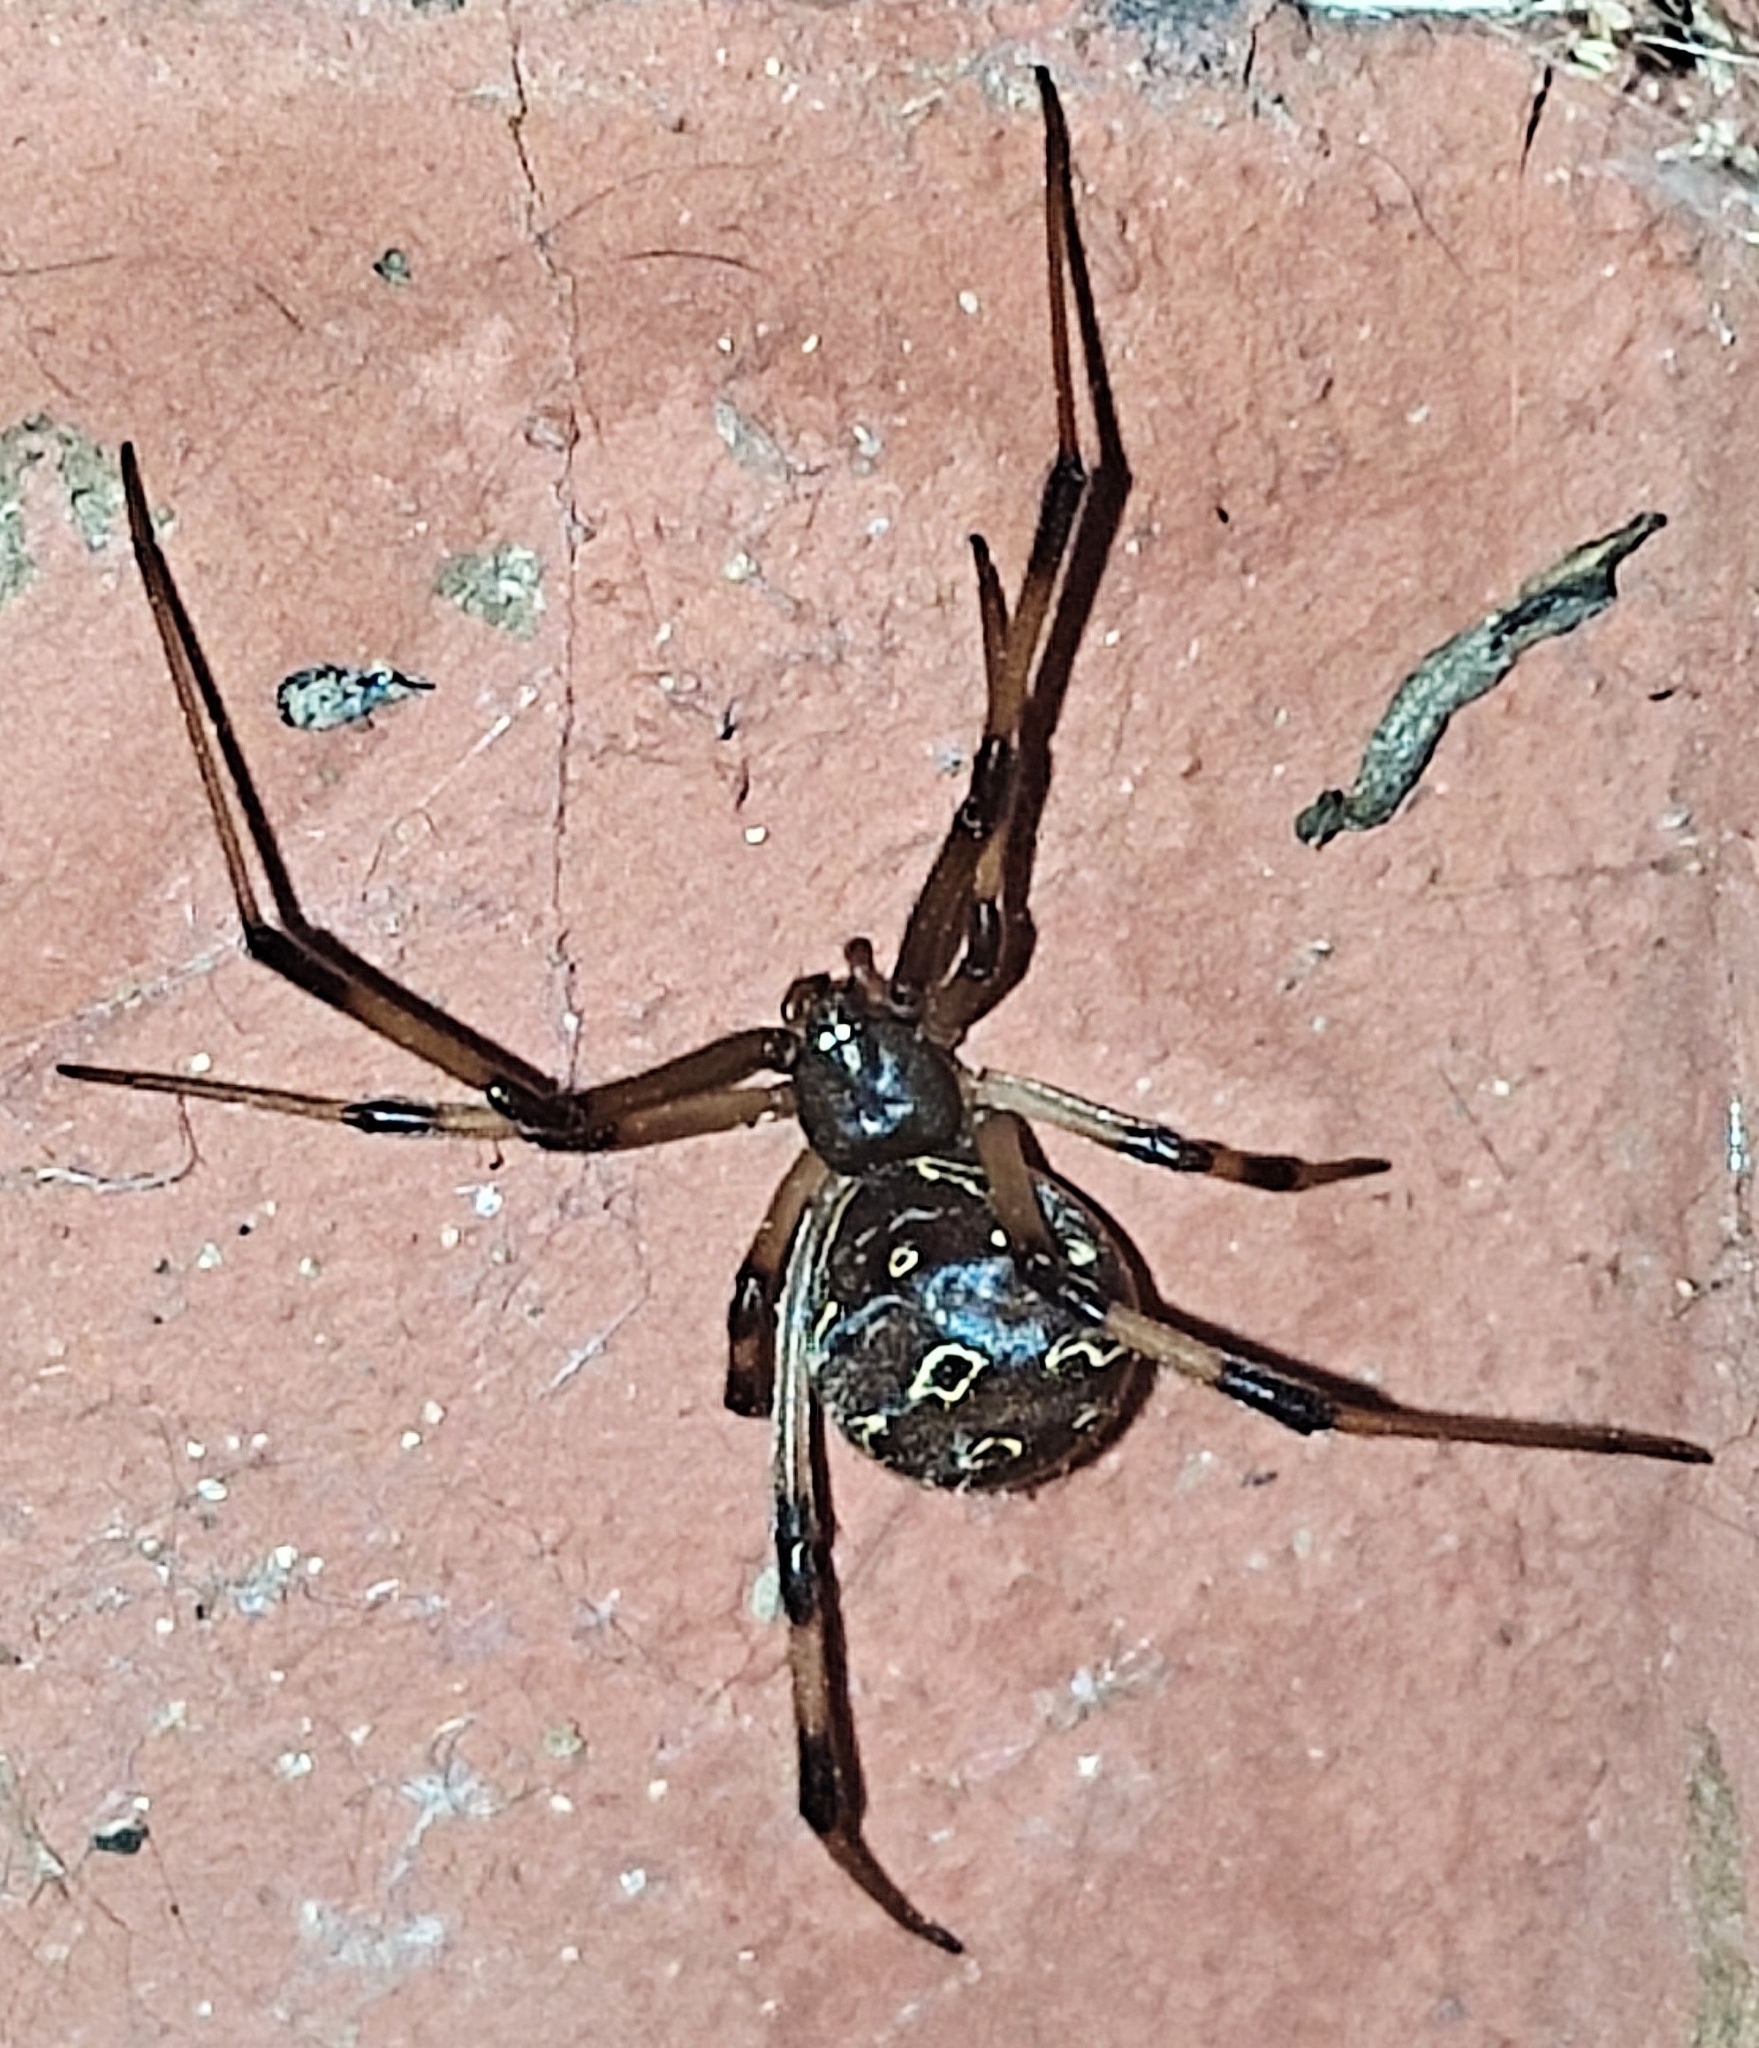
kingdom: Animalia
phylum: Arthropoda
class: Arachnida
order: Araneae
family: Theridiidae
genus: Latrodectus
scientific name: Latrodectus geometricus
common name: Brown widow spider
